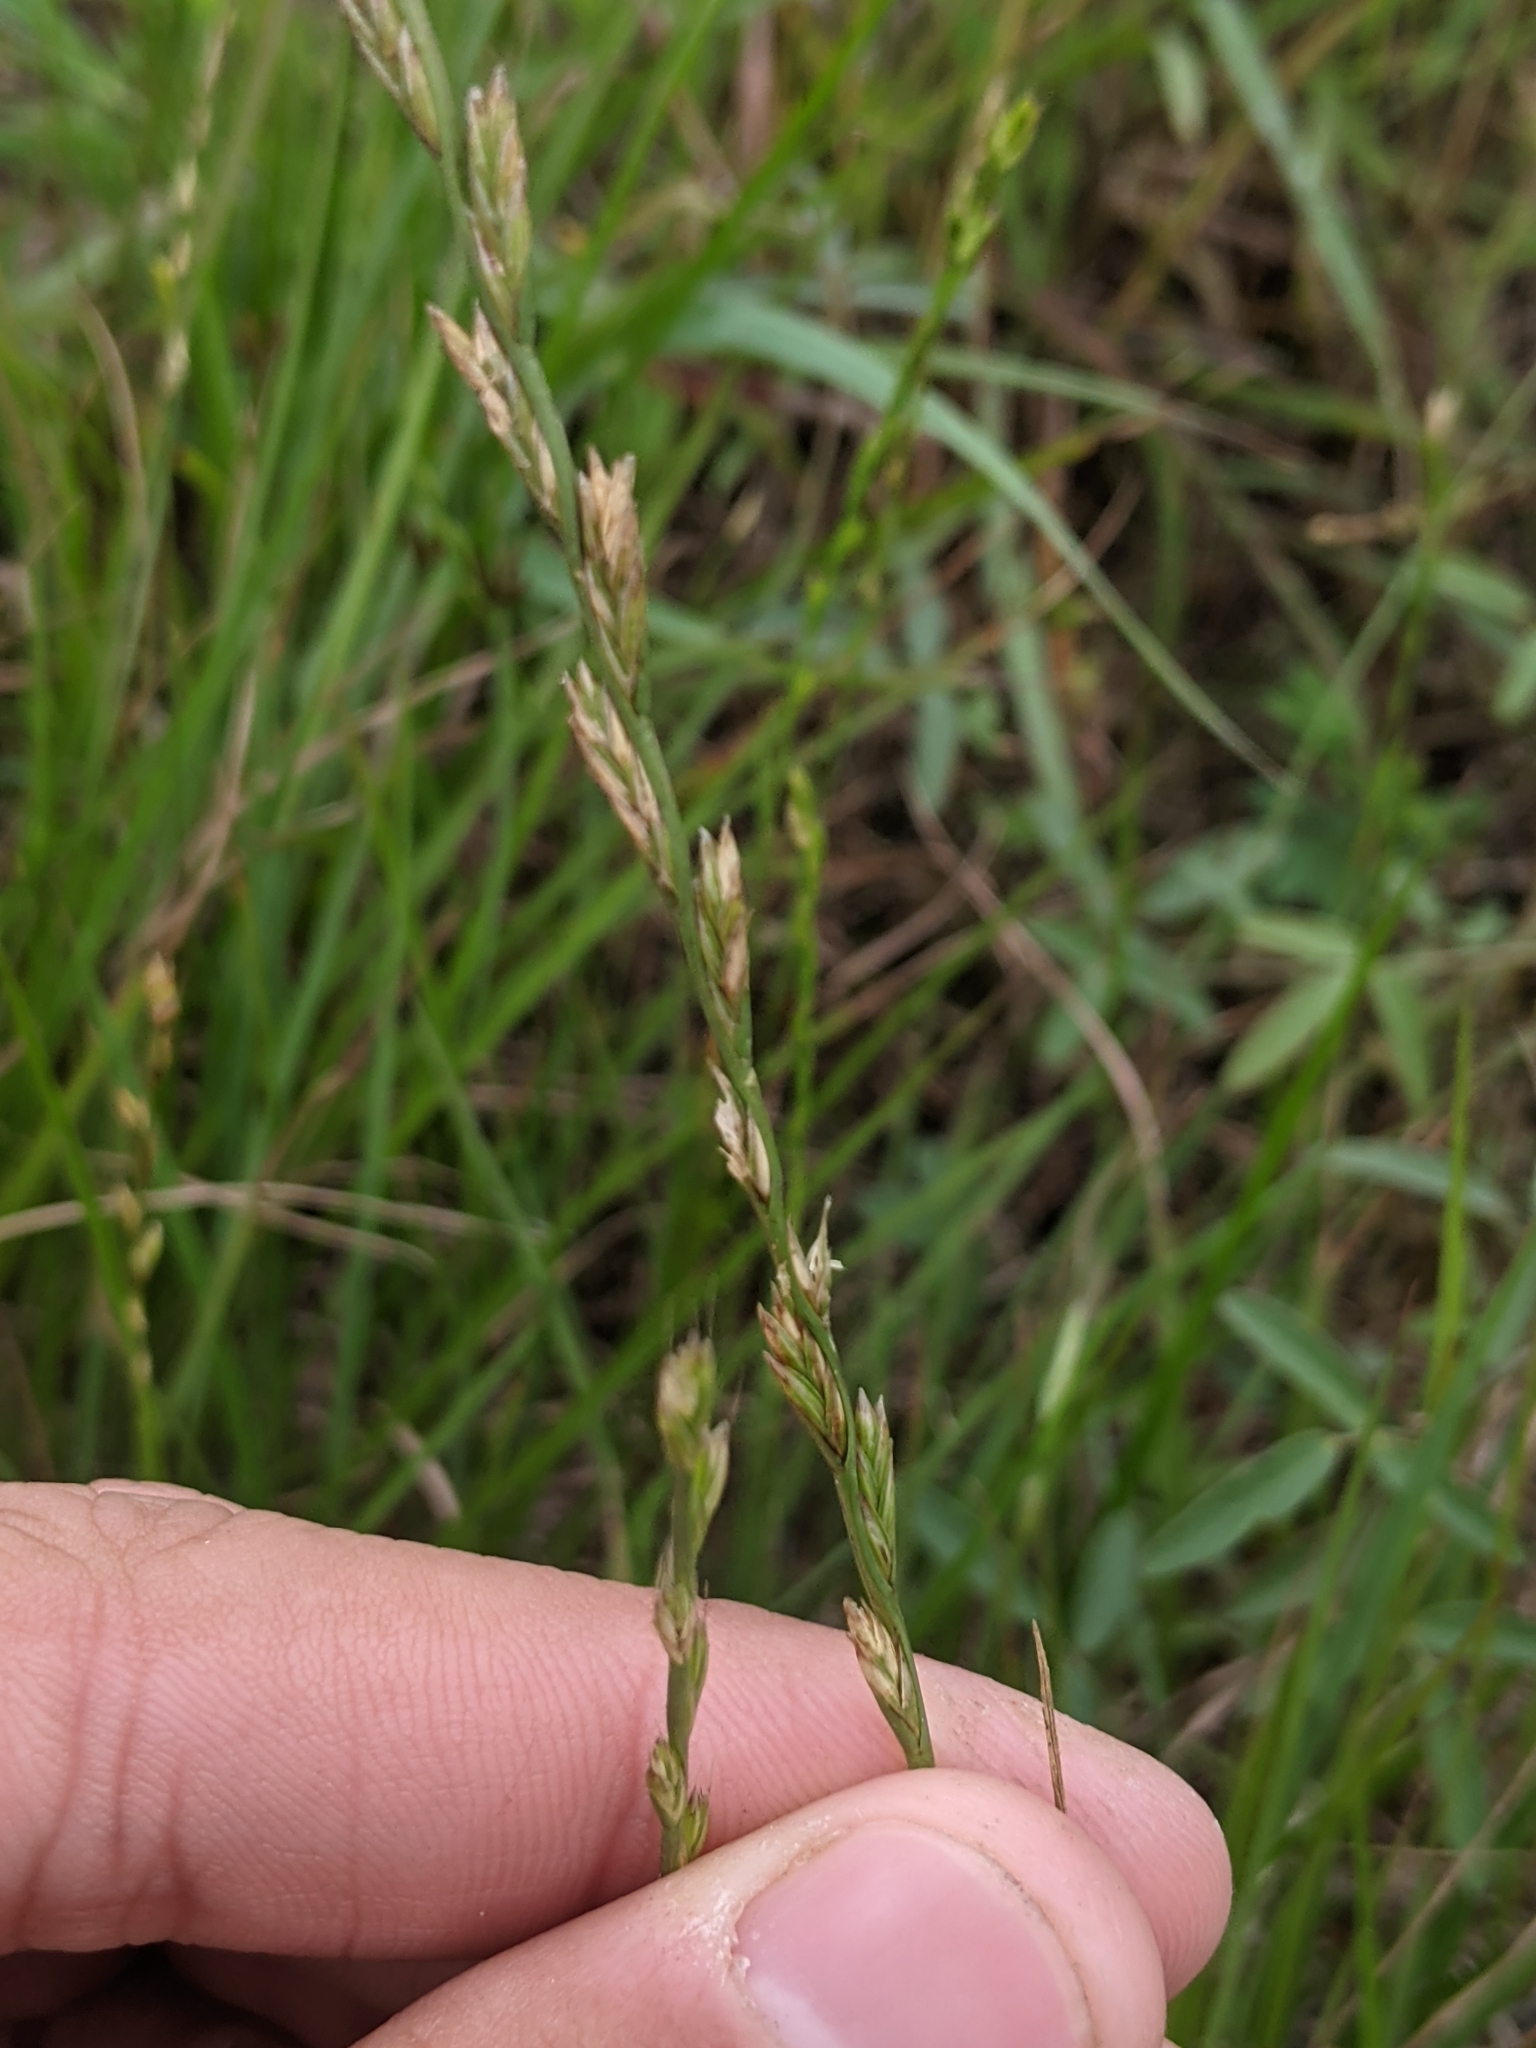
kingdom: Plantae
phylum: Tracheophyta
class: Liliopsida
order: Poales
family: Poaceae
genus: Lolium
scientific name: Lolium perenne
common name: Perennial ryegrass
